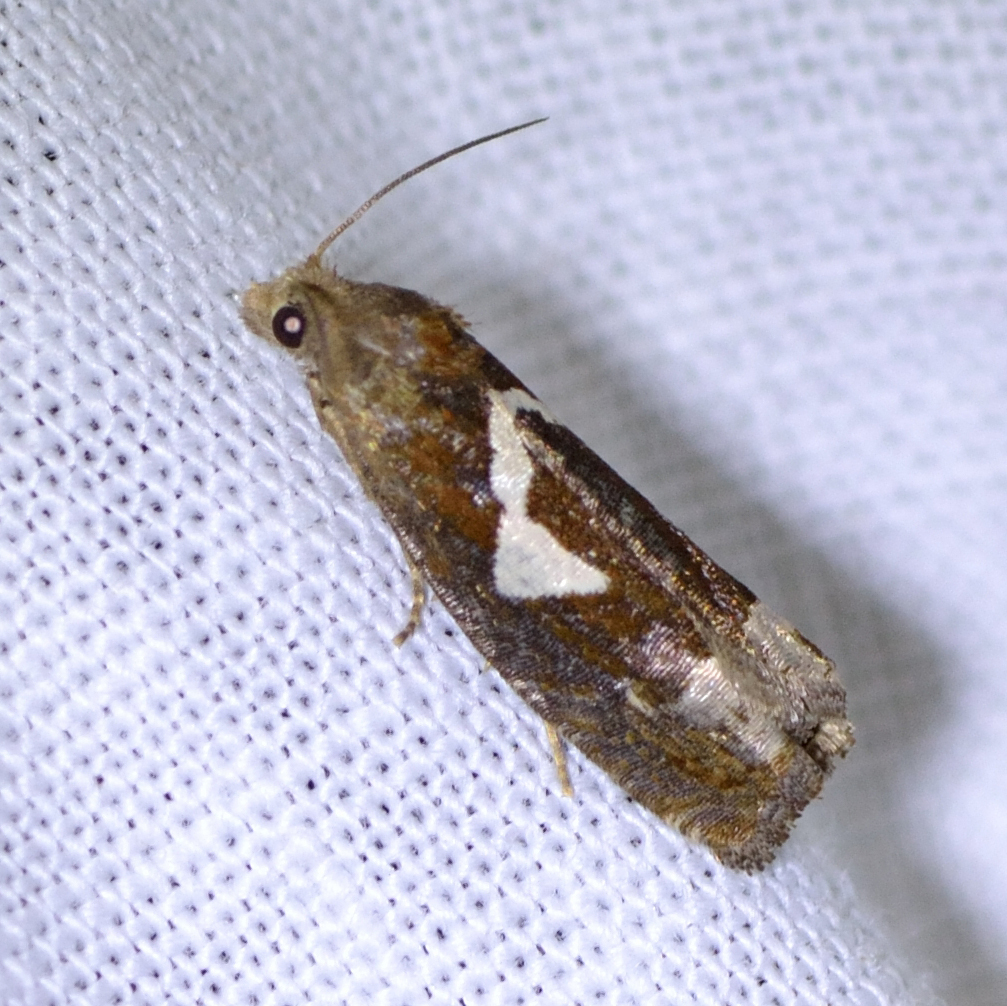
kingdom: Animalia
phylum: Arthropoda
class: Insecta
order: Lepidoptera
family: Tortricidae
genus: Epiblema
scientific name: Epiblema foenella
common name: White-foot bell
